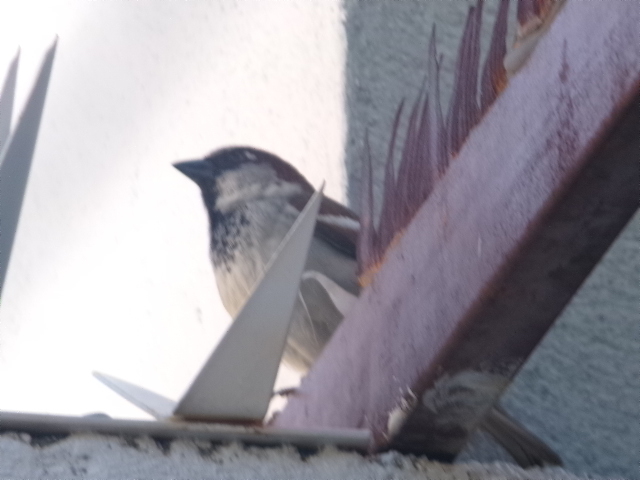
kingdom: Animalia
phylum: Chordata
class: Aves
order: Passeriformes
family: Passeridae
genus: Passer
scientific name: Passer domesticus
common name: House sparrow
